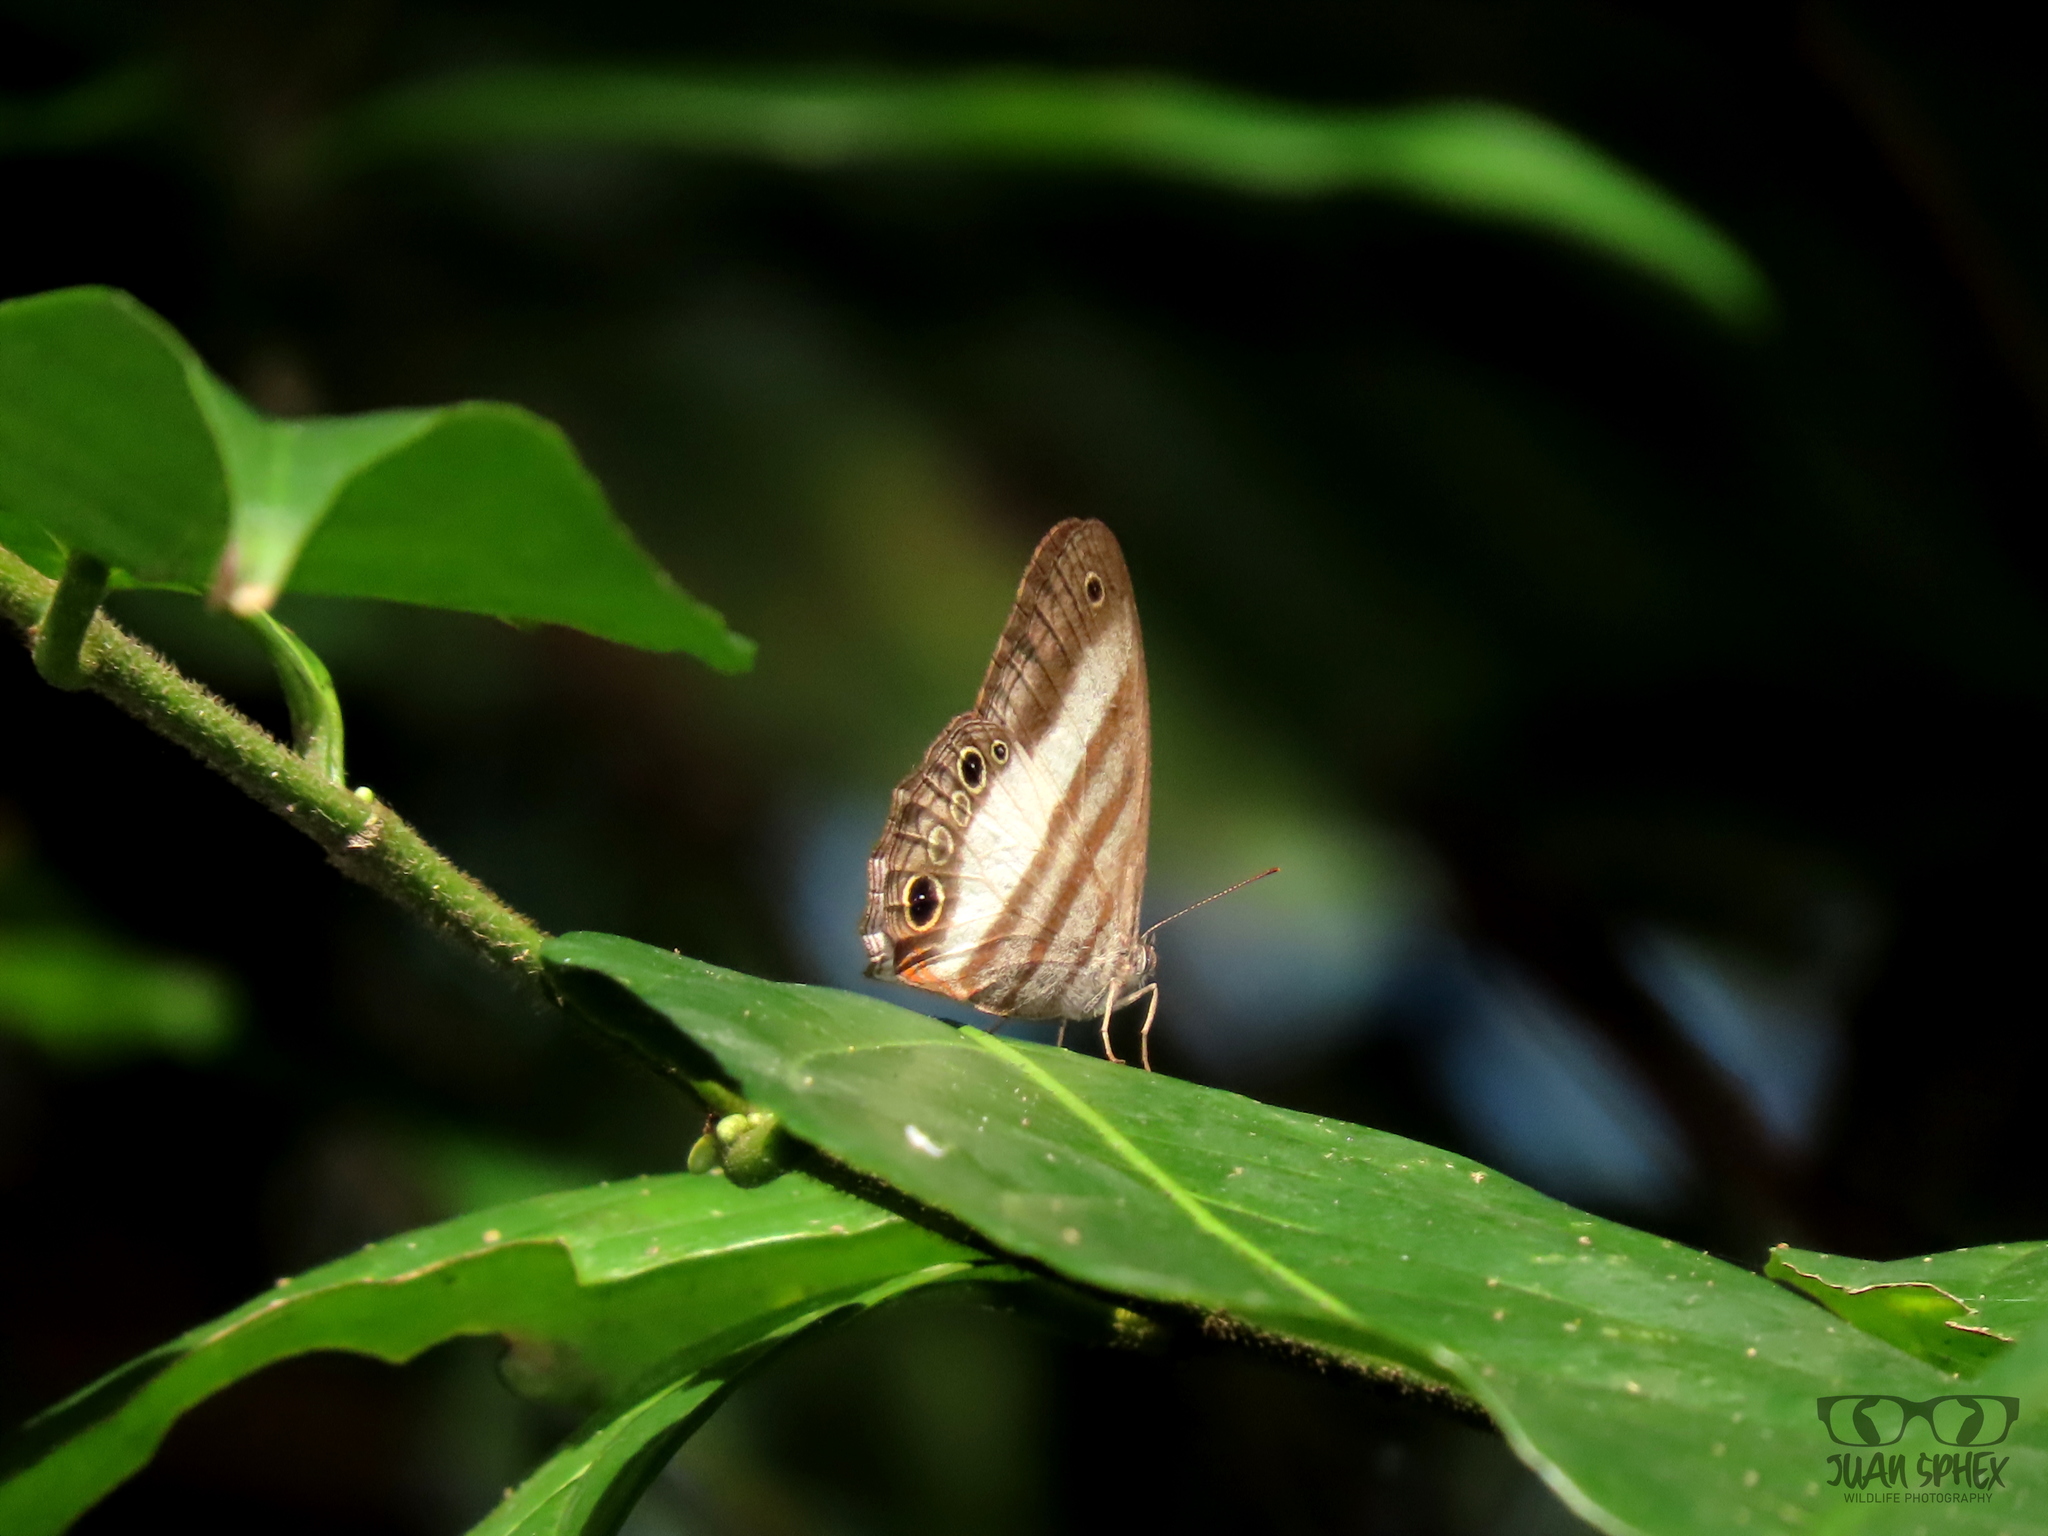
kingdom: Animalia
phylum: Arthropoda
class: Insecta
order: Lepidoptera
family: Nymphalidae
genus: Pareuptychia
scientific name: Pareuptychia metaleuca
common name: White-banded satyr
